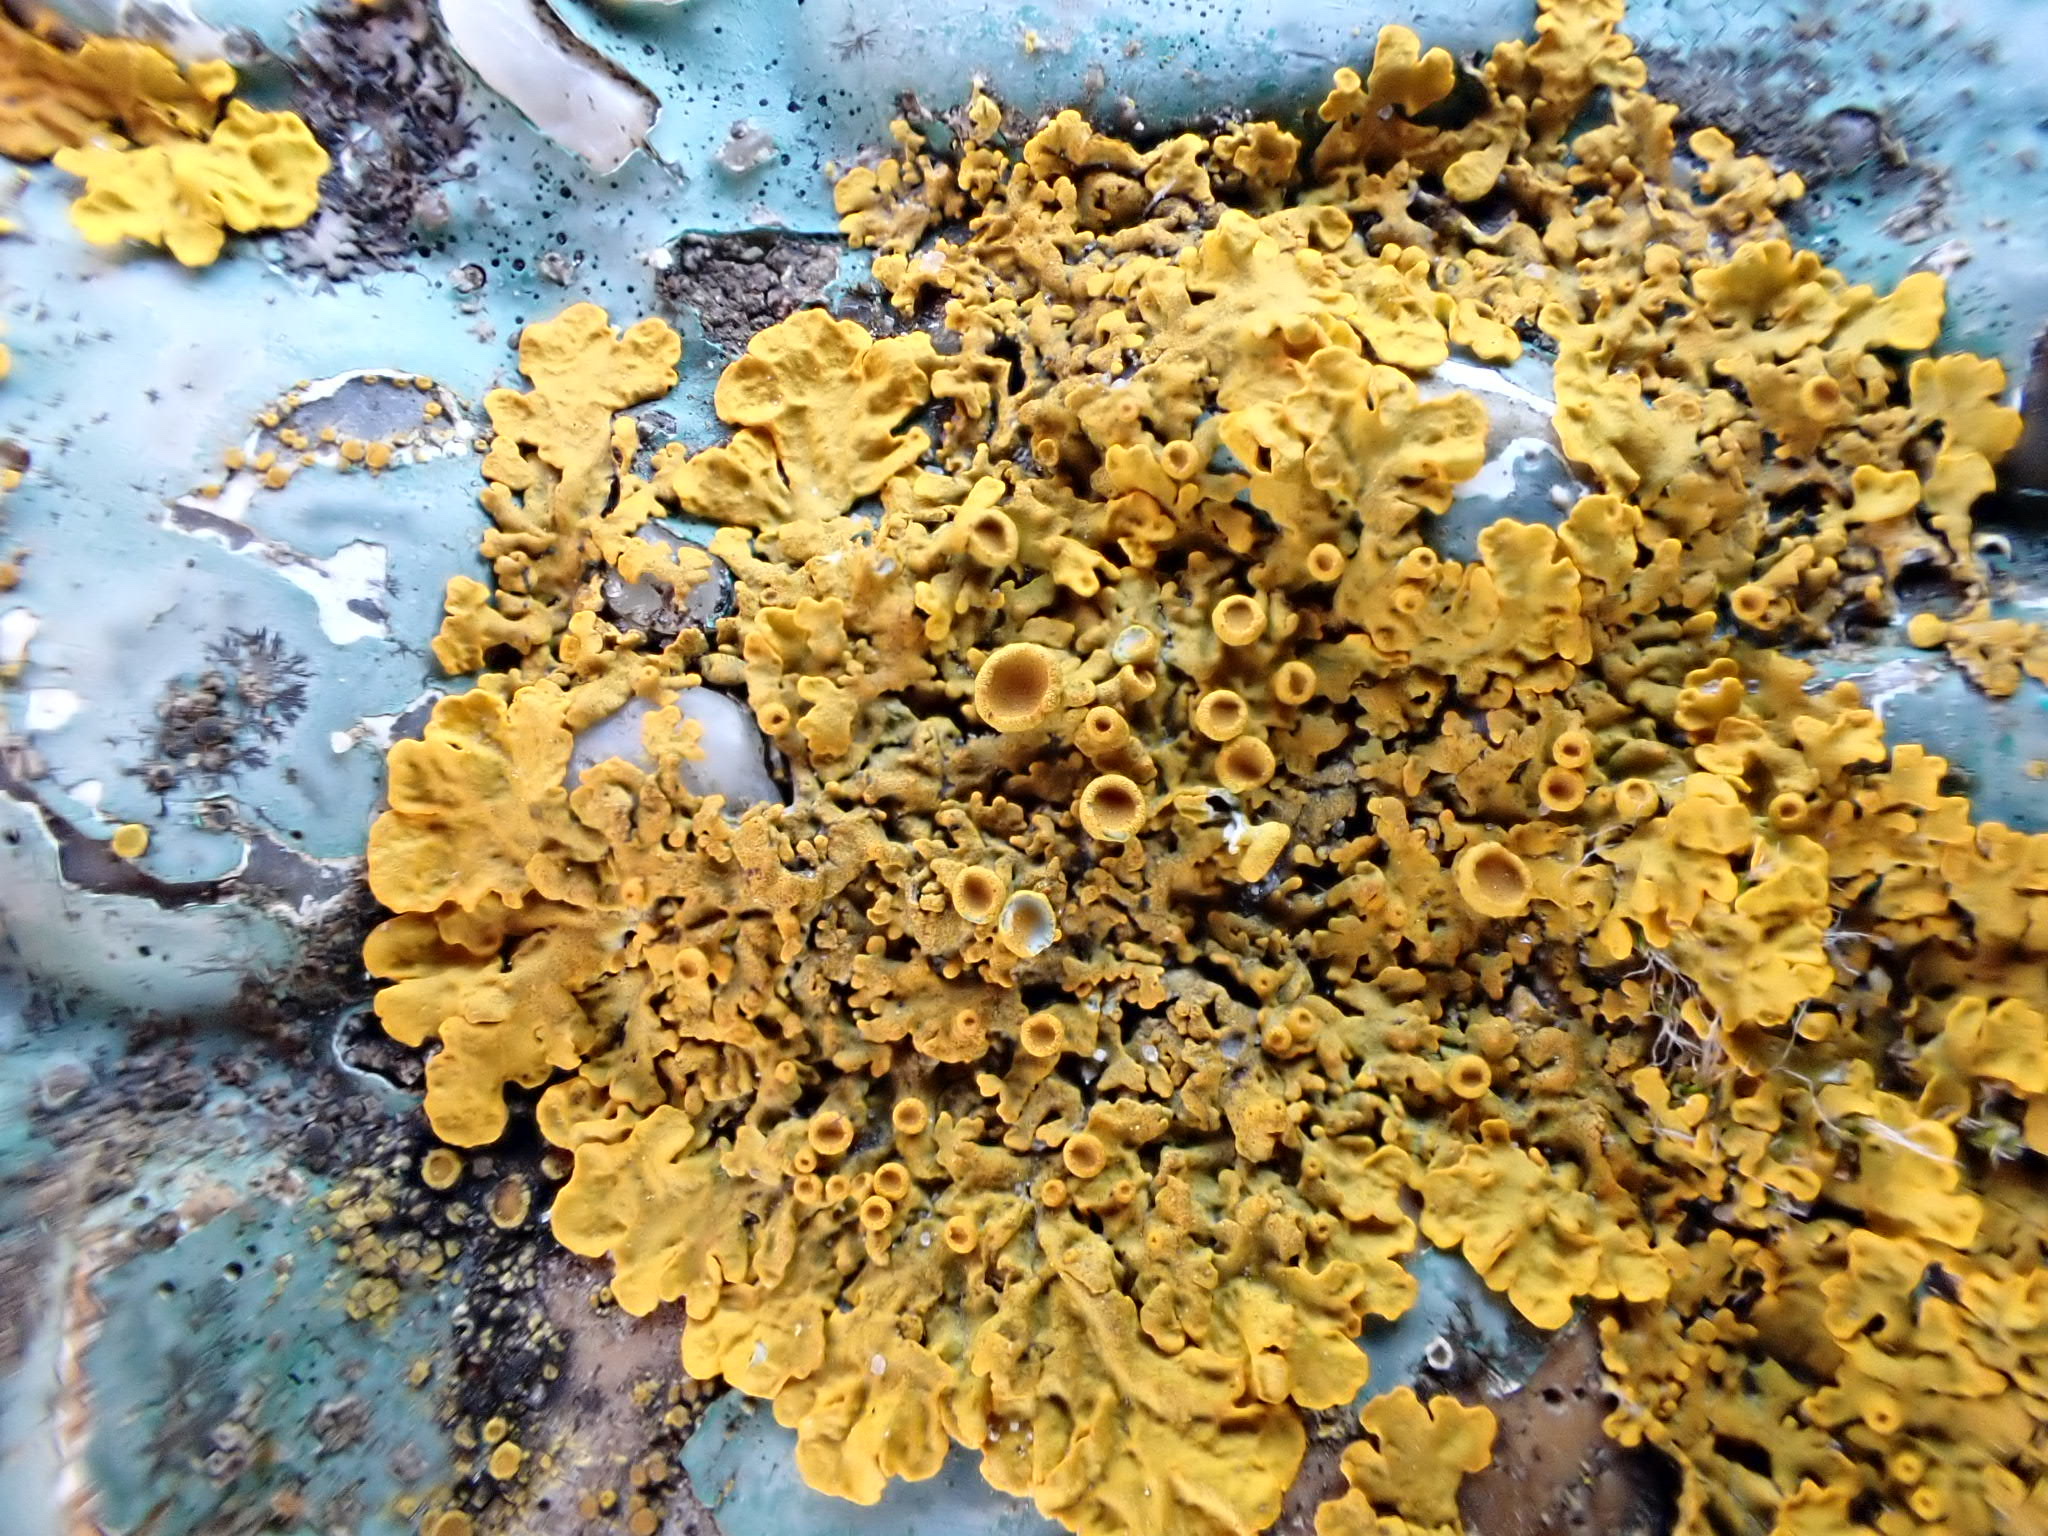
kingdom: Fungi
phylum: Ascomycota
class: Lecanoromycetes
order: Teloschistales
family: Teloschistaceae
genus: Xanthoria
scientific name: Xanthoria parietina
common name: Common orange lichen
